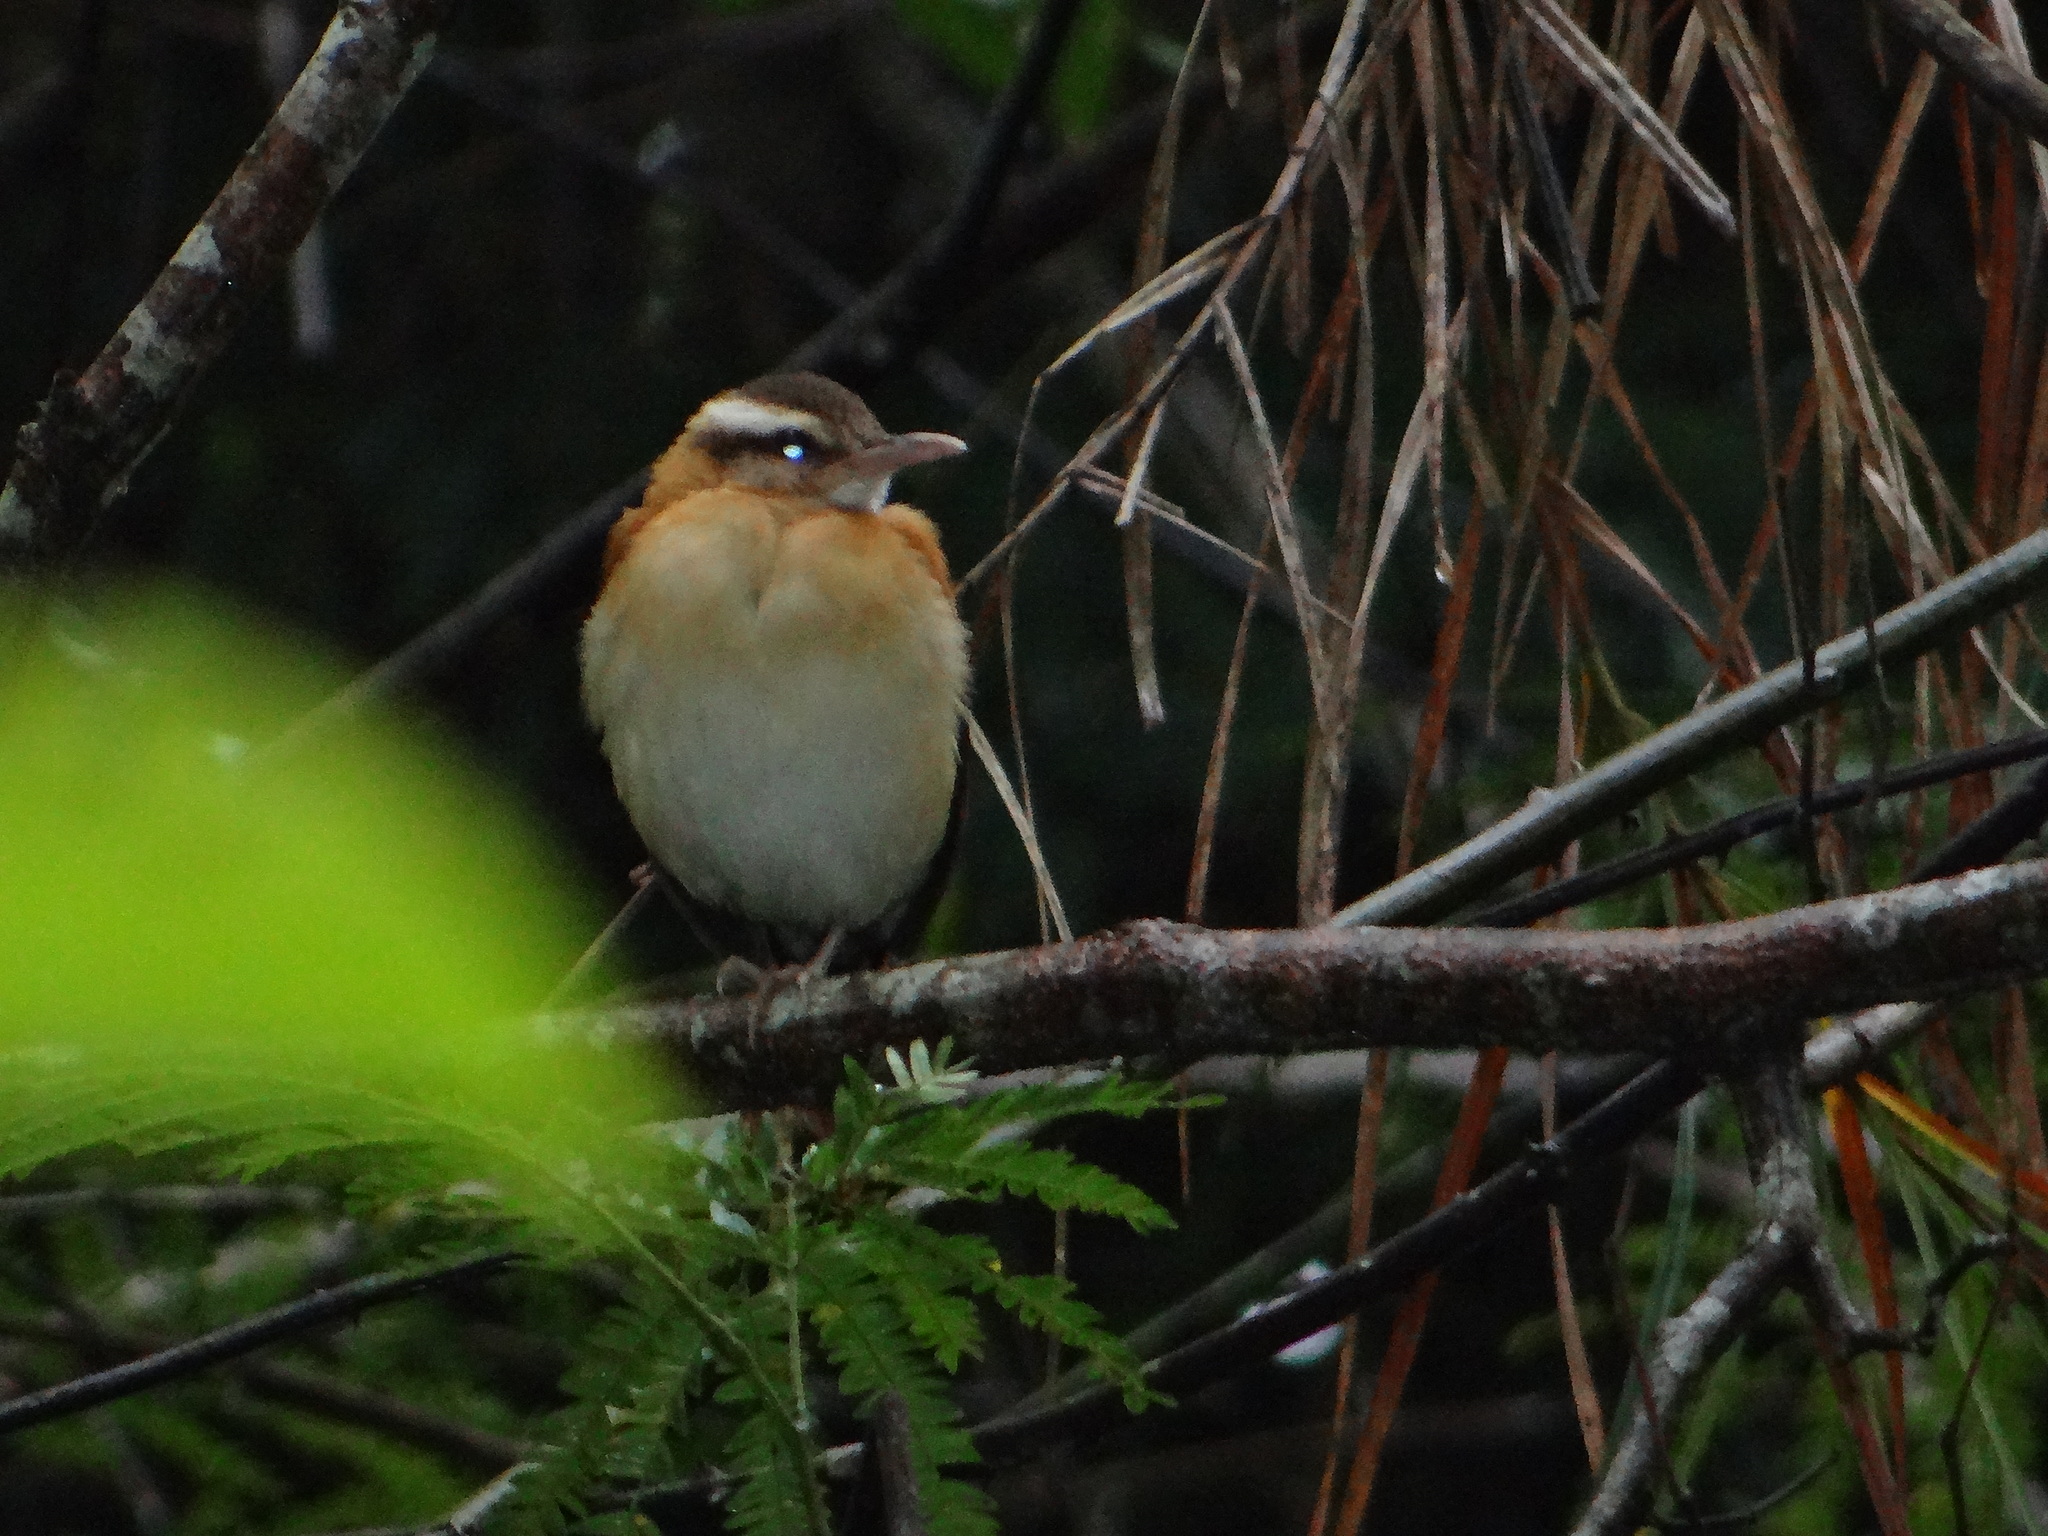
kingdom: Animalia
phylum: Chordata
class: Aves
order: Passeriformes
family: Furnariidae
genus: Furnarius
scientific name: Furnarius leucopus
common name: Pale-legged hornero
